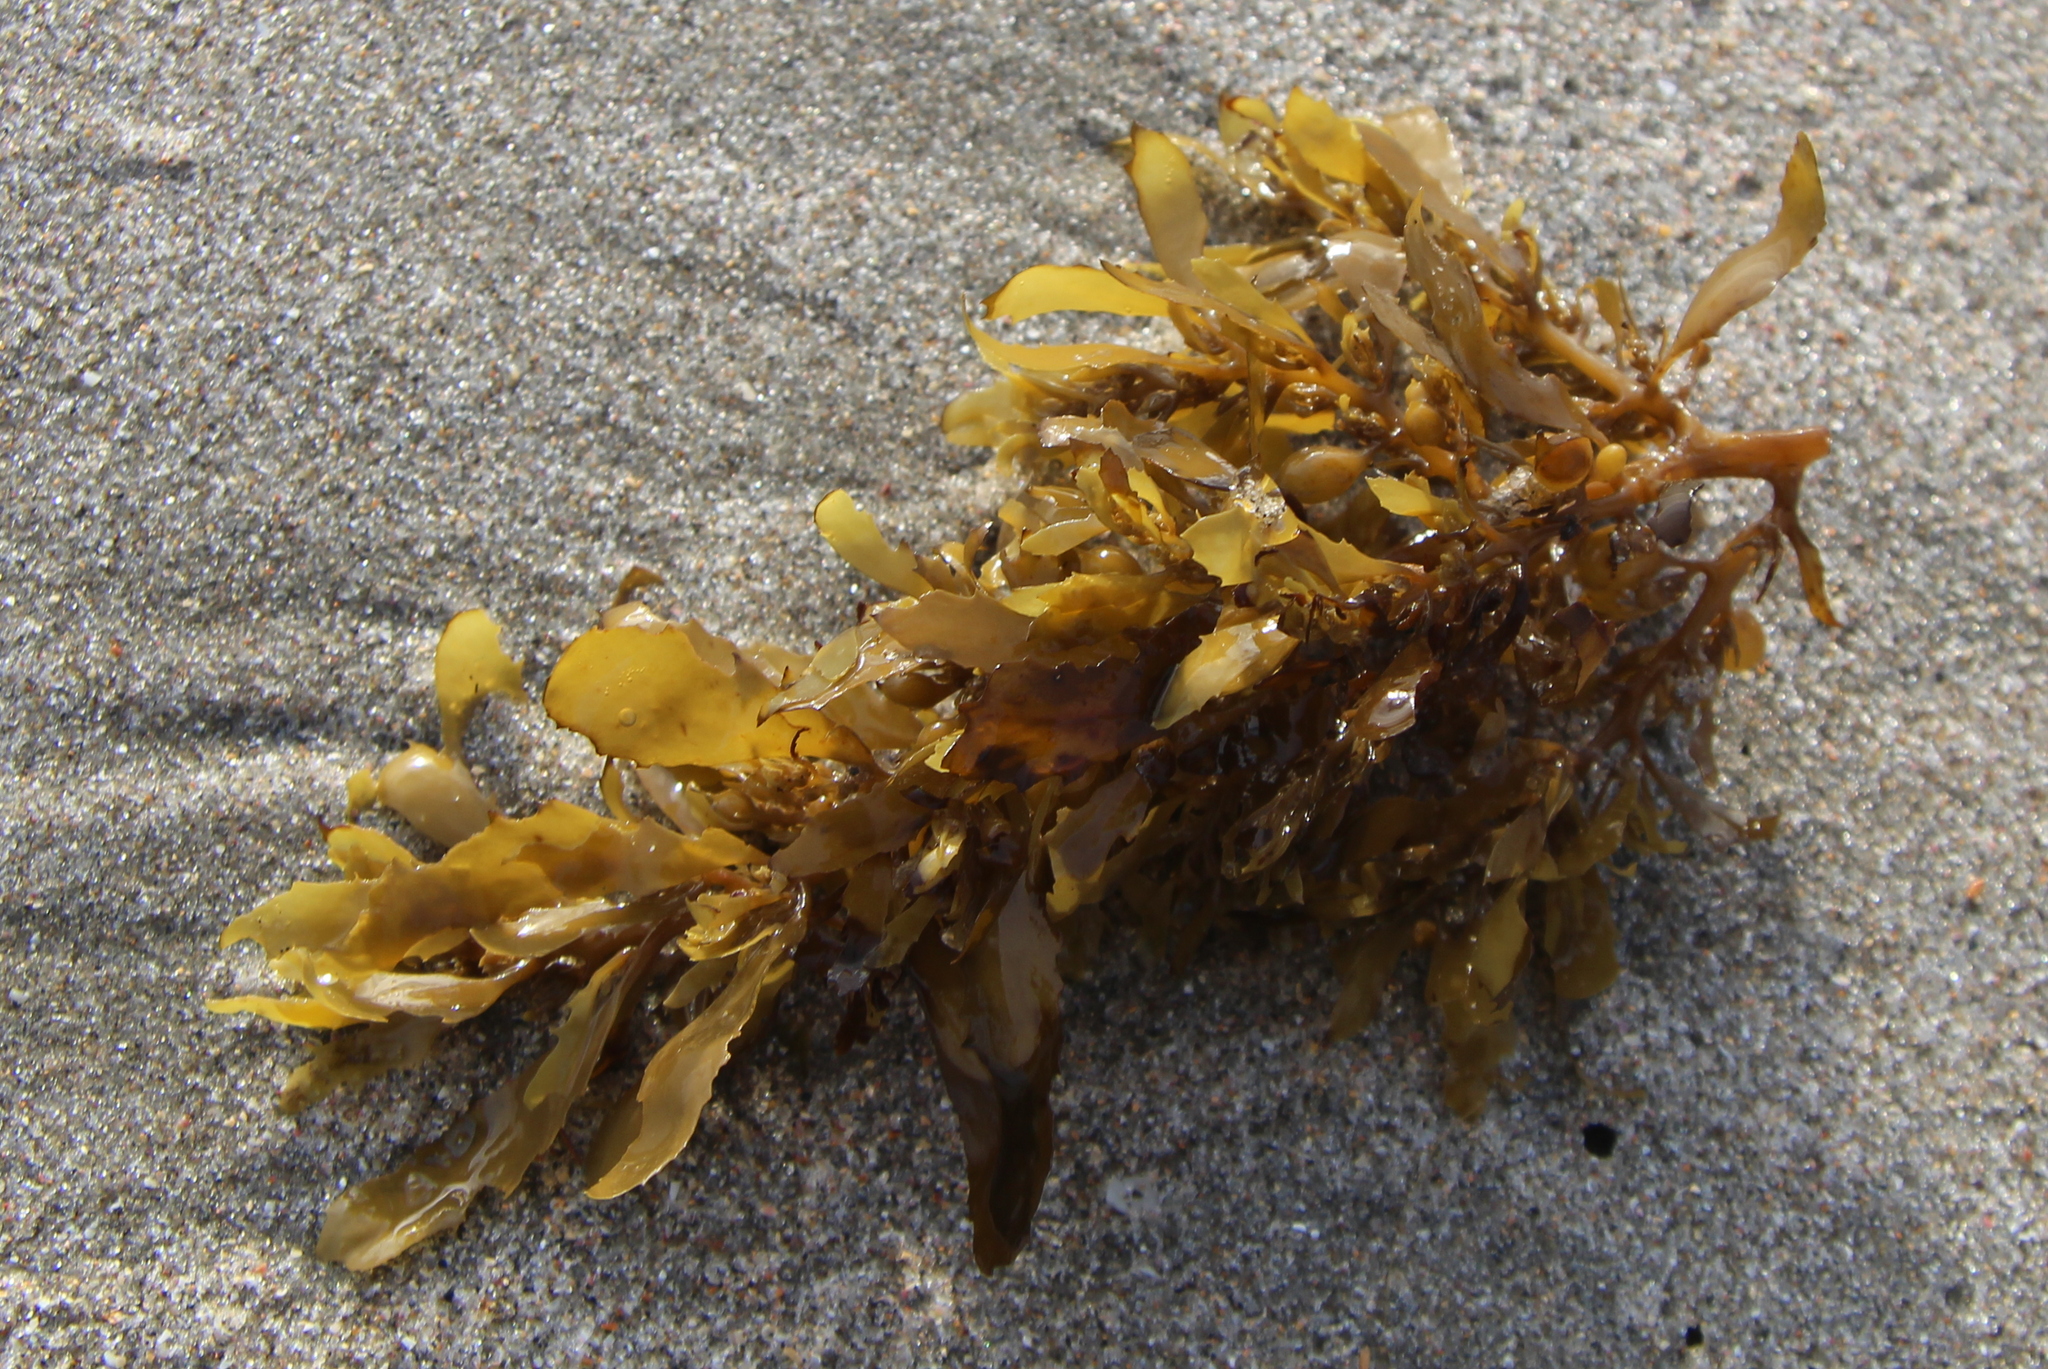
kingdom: Chromista
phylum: Ochrophyta
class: Phaeophyceae
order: Fucales
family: Sargassaceae
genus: Sargassum
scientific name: Sargassum sinclairii
